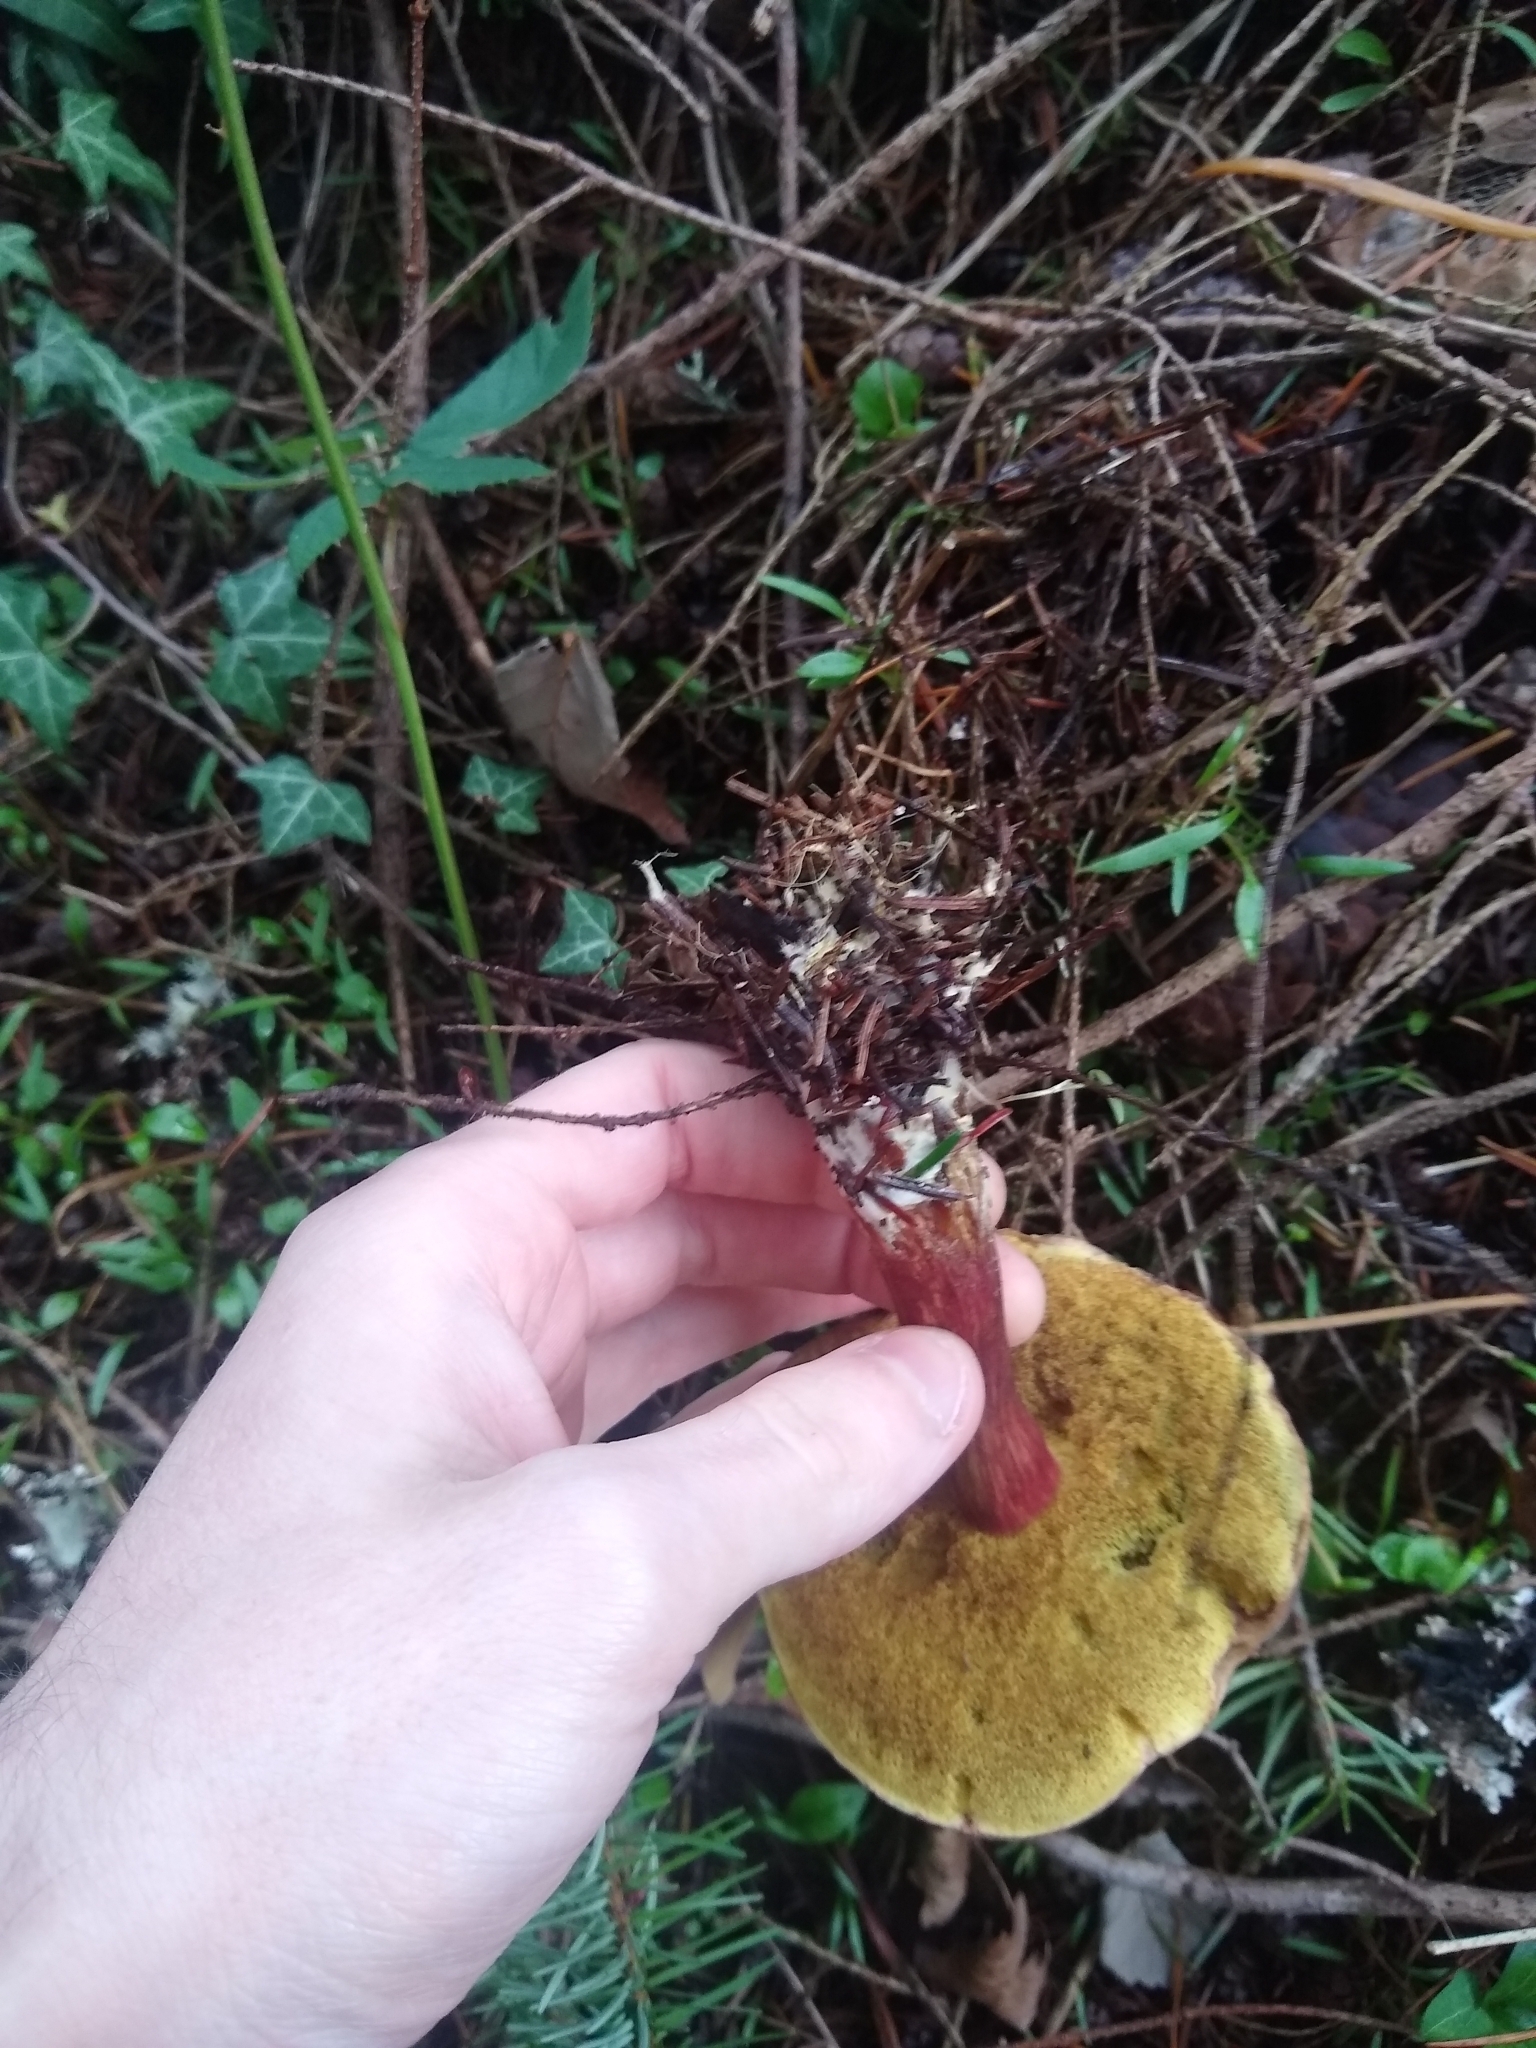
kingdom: Fungi
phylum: Basidiomycota
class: Agaricomycetes
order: Boletales
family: Boletaceae
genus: Xerocomellus
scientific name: Xerocomellus atropurpureus
